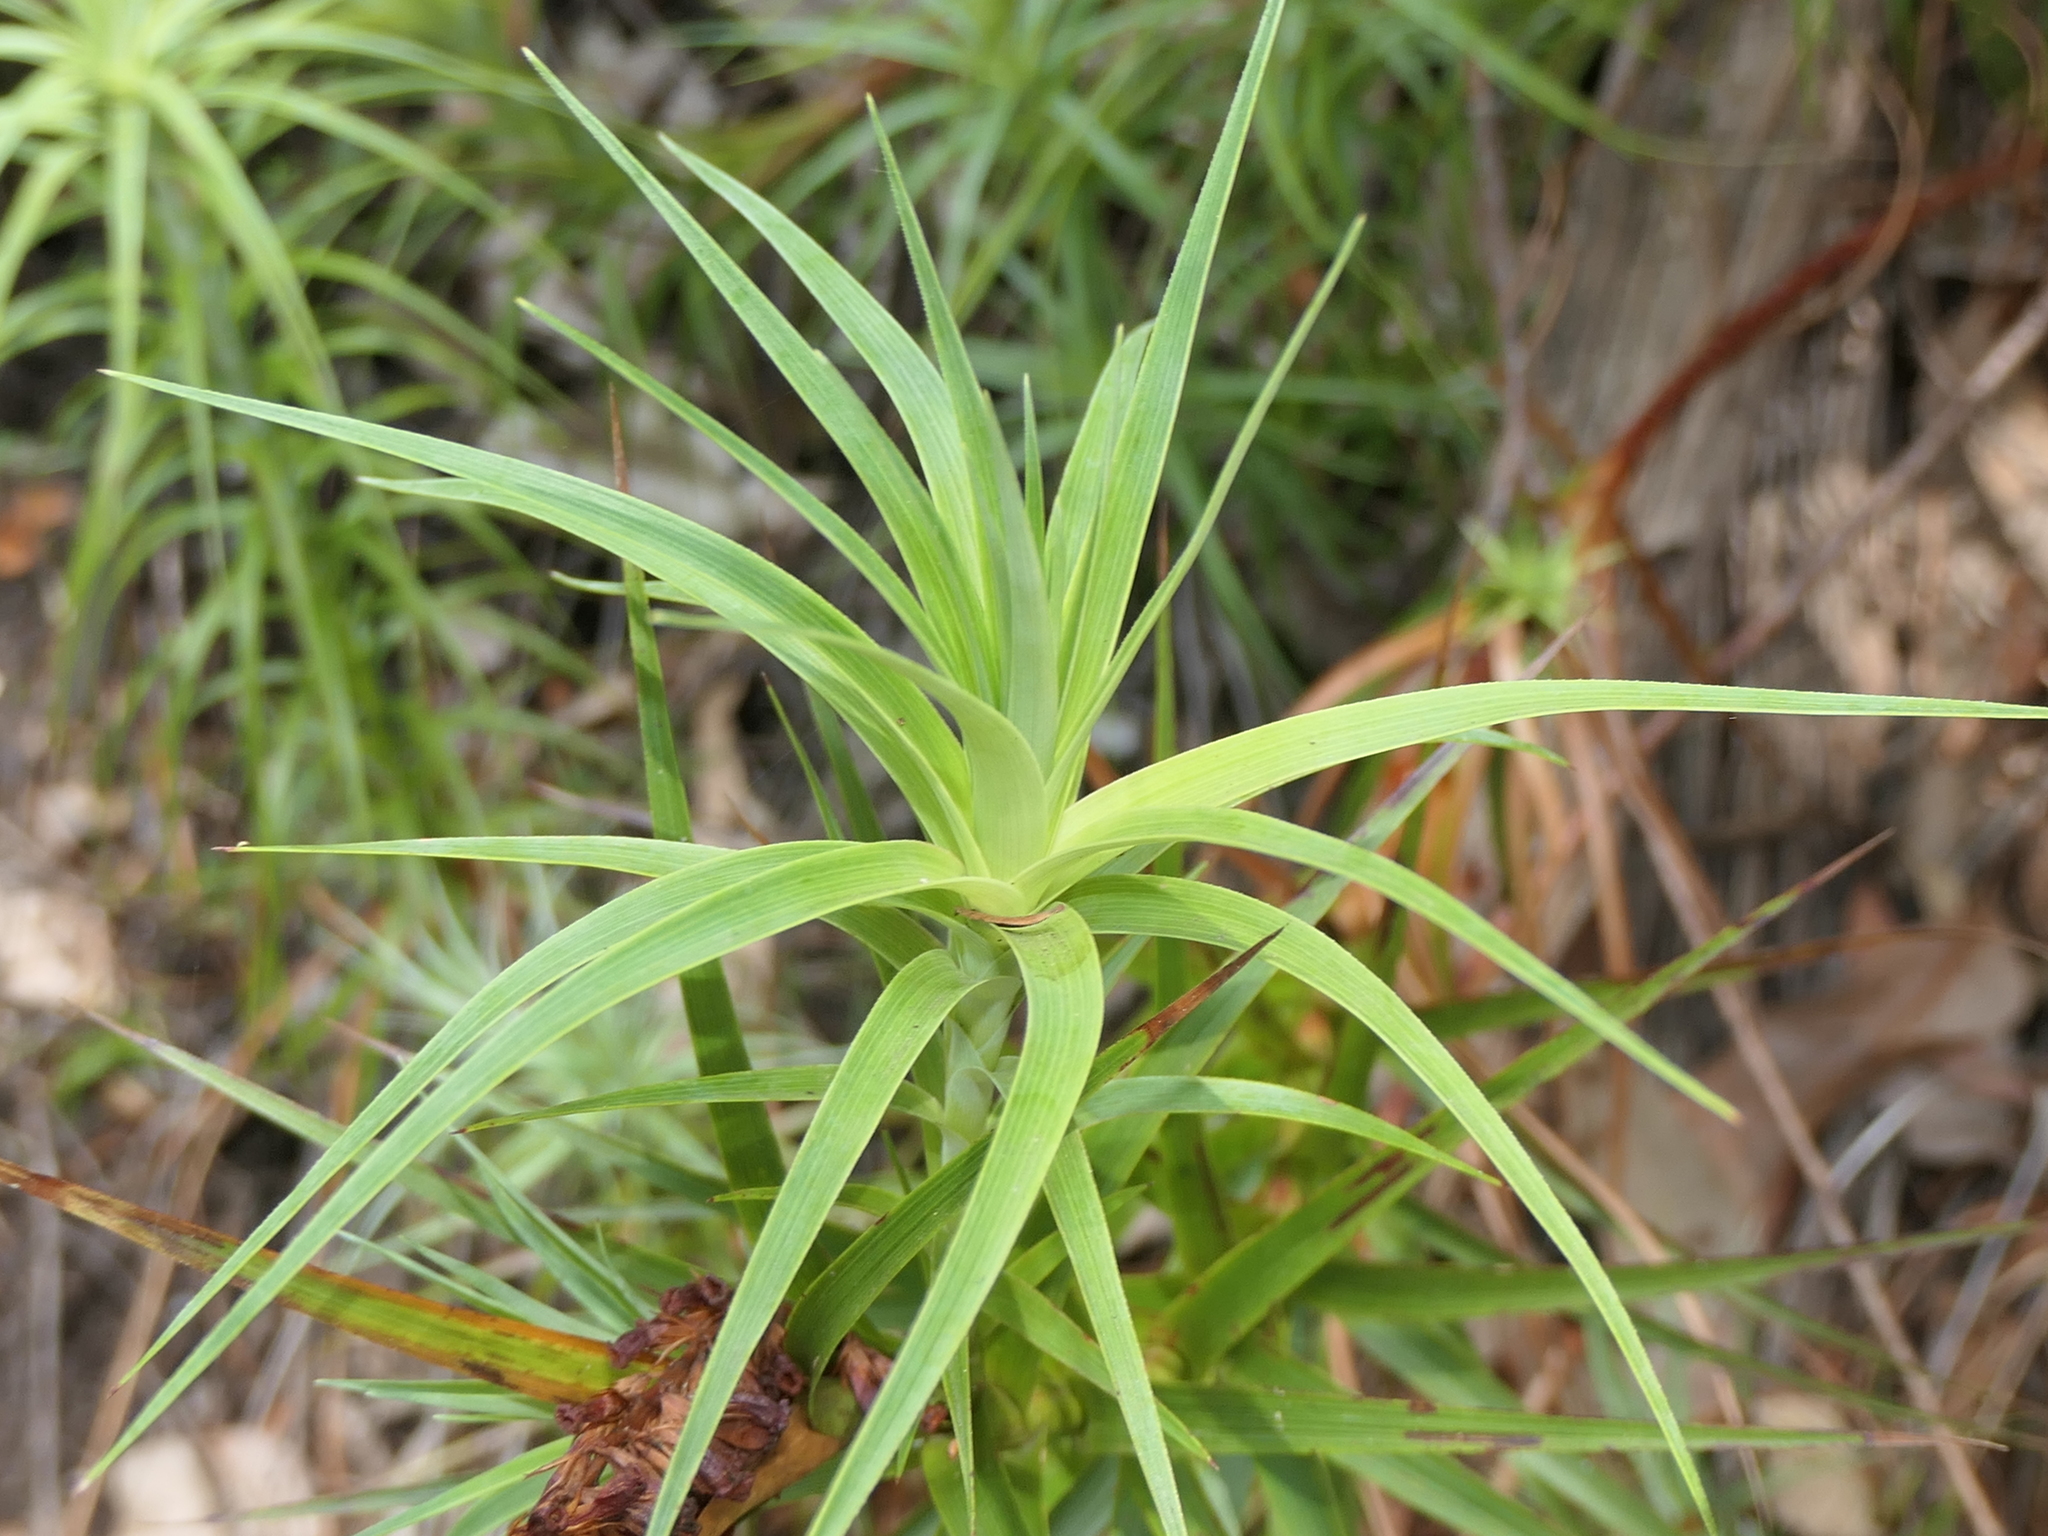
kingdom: Plantae
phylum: Tracheophyta
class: Magnoliopsida
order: Ericales
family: Ericaceae
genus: Dracophyllum
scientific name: Dracophyllum secundum
